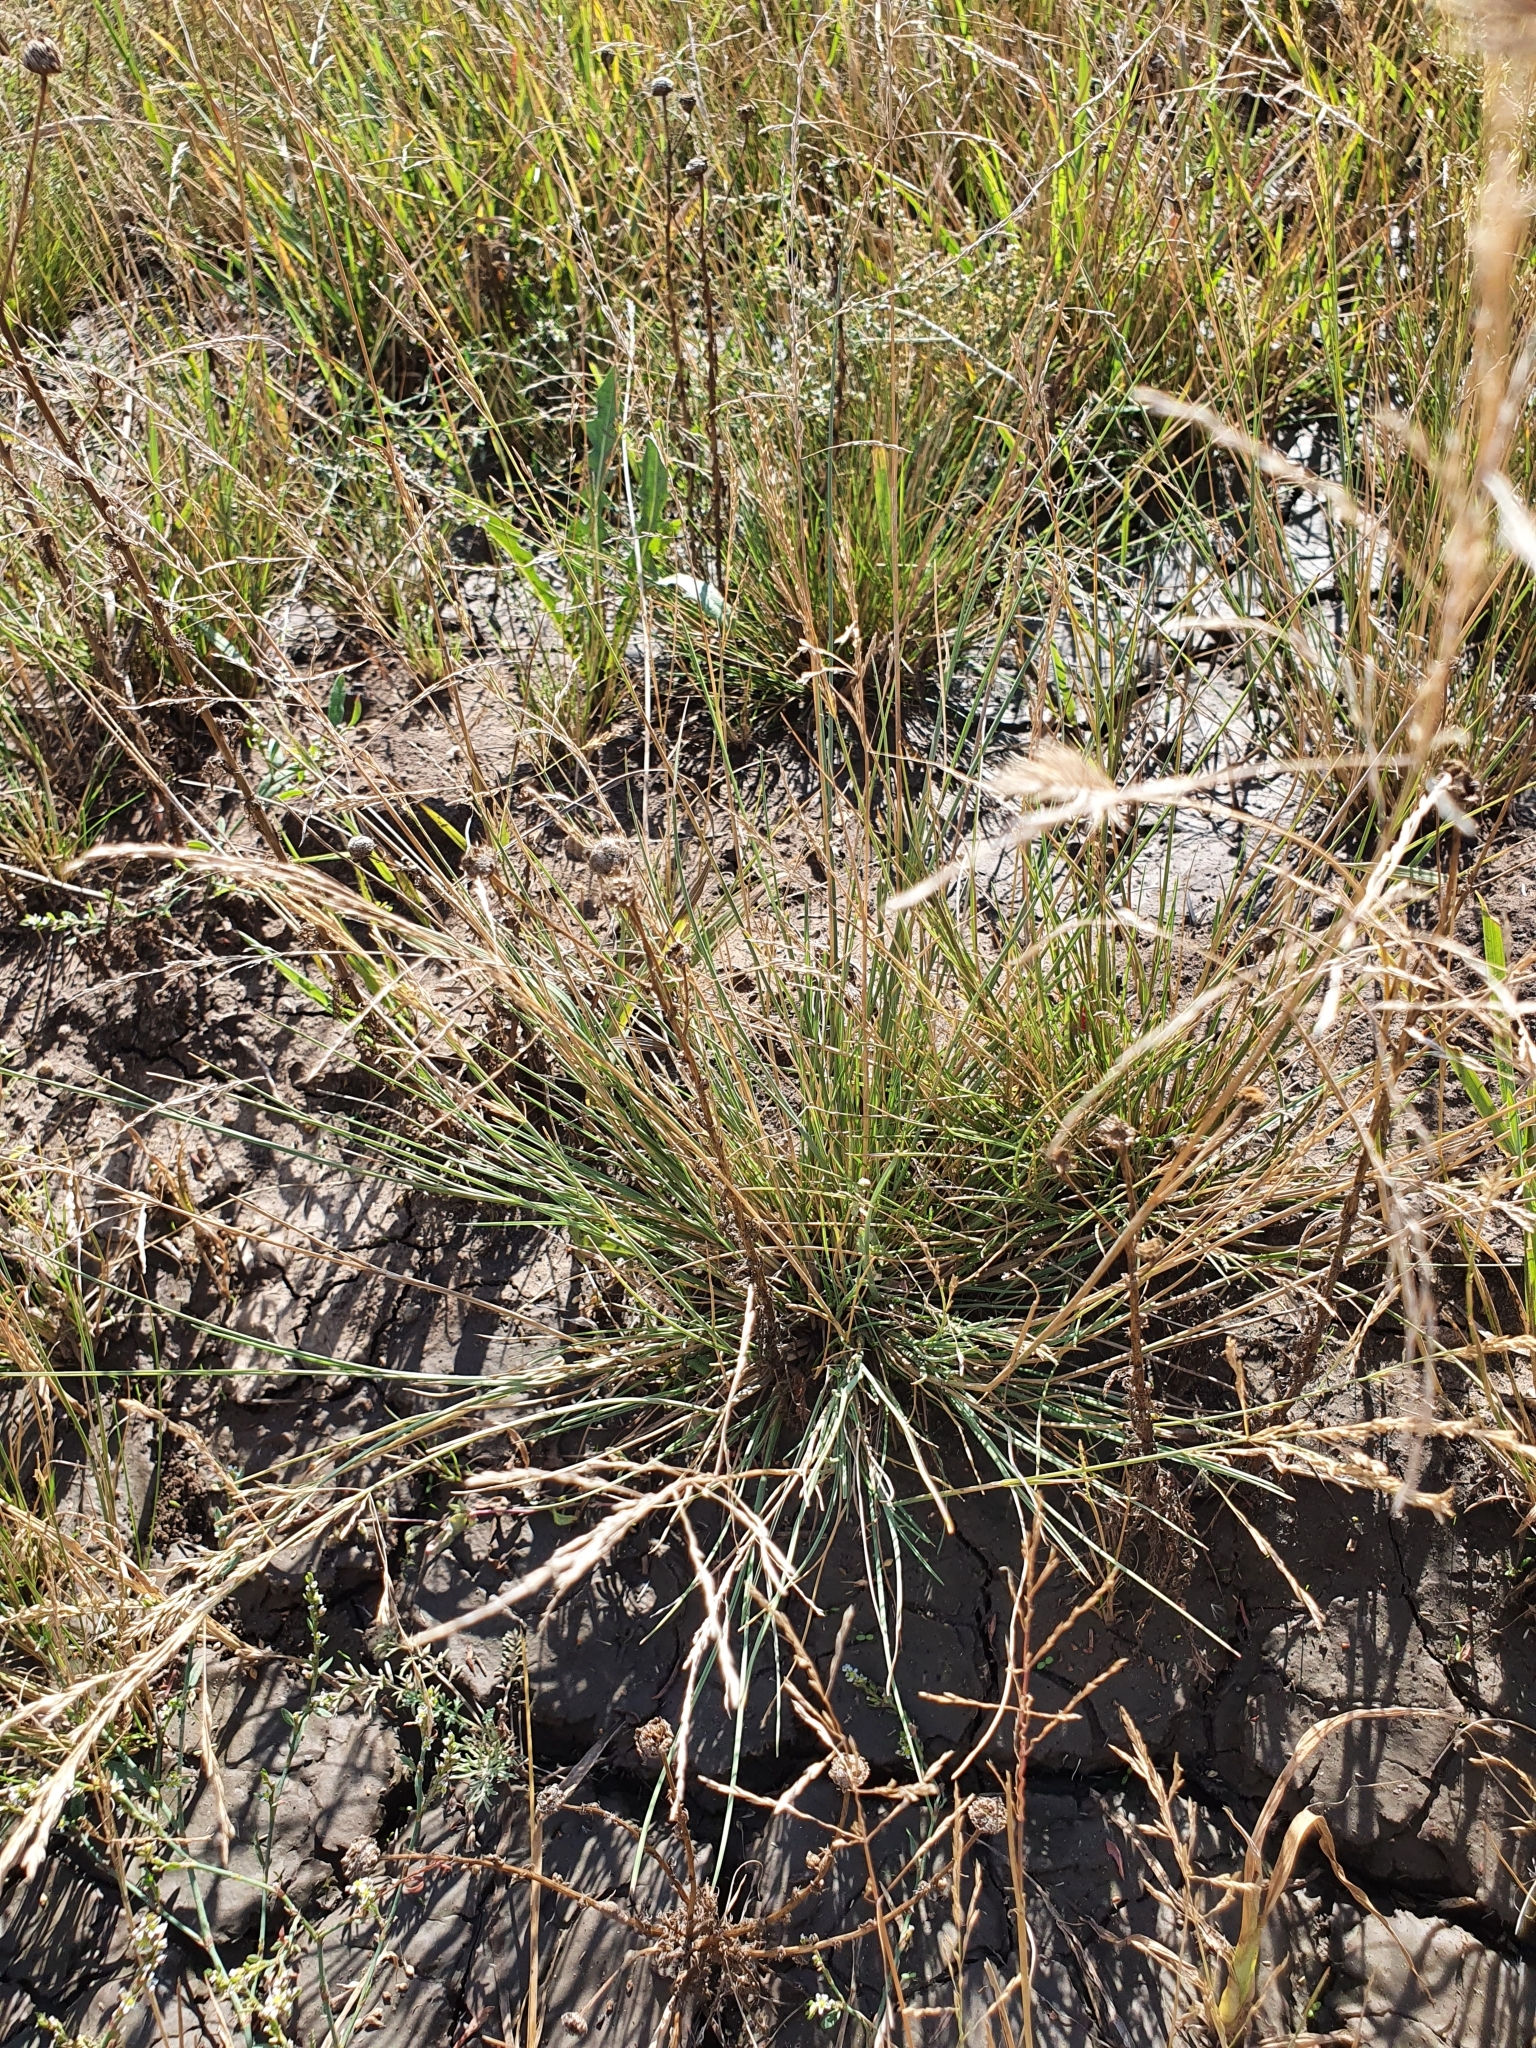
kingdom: Plantae
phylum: Tracheophyta
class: Liliopsida
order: Poales
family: Poaceae
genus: Puccinellia
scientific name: Puccinellia tenuissima
